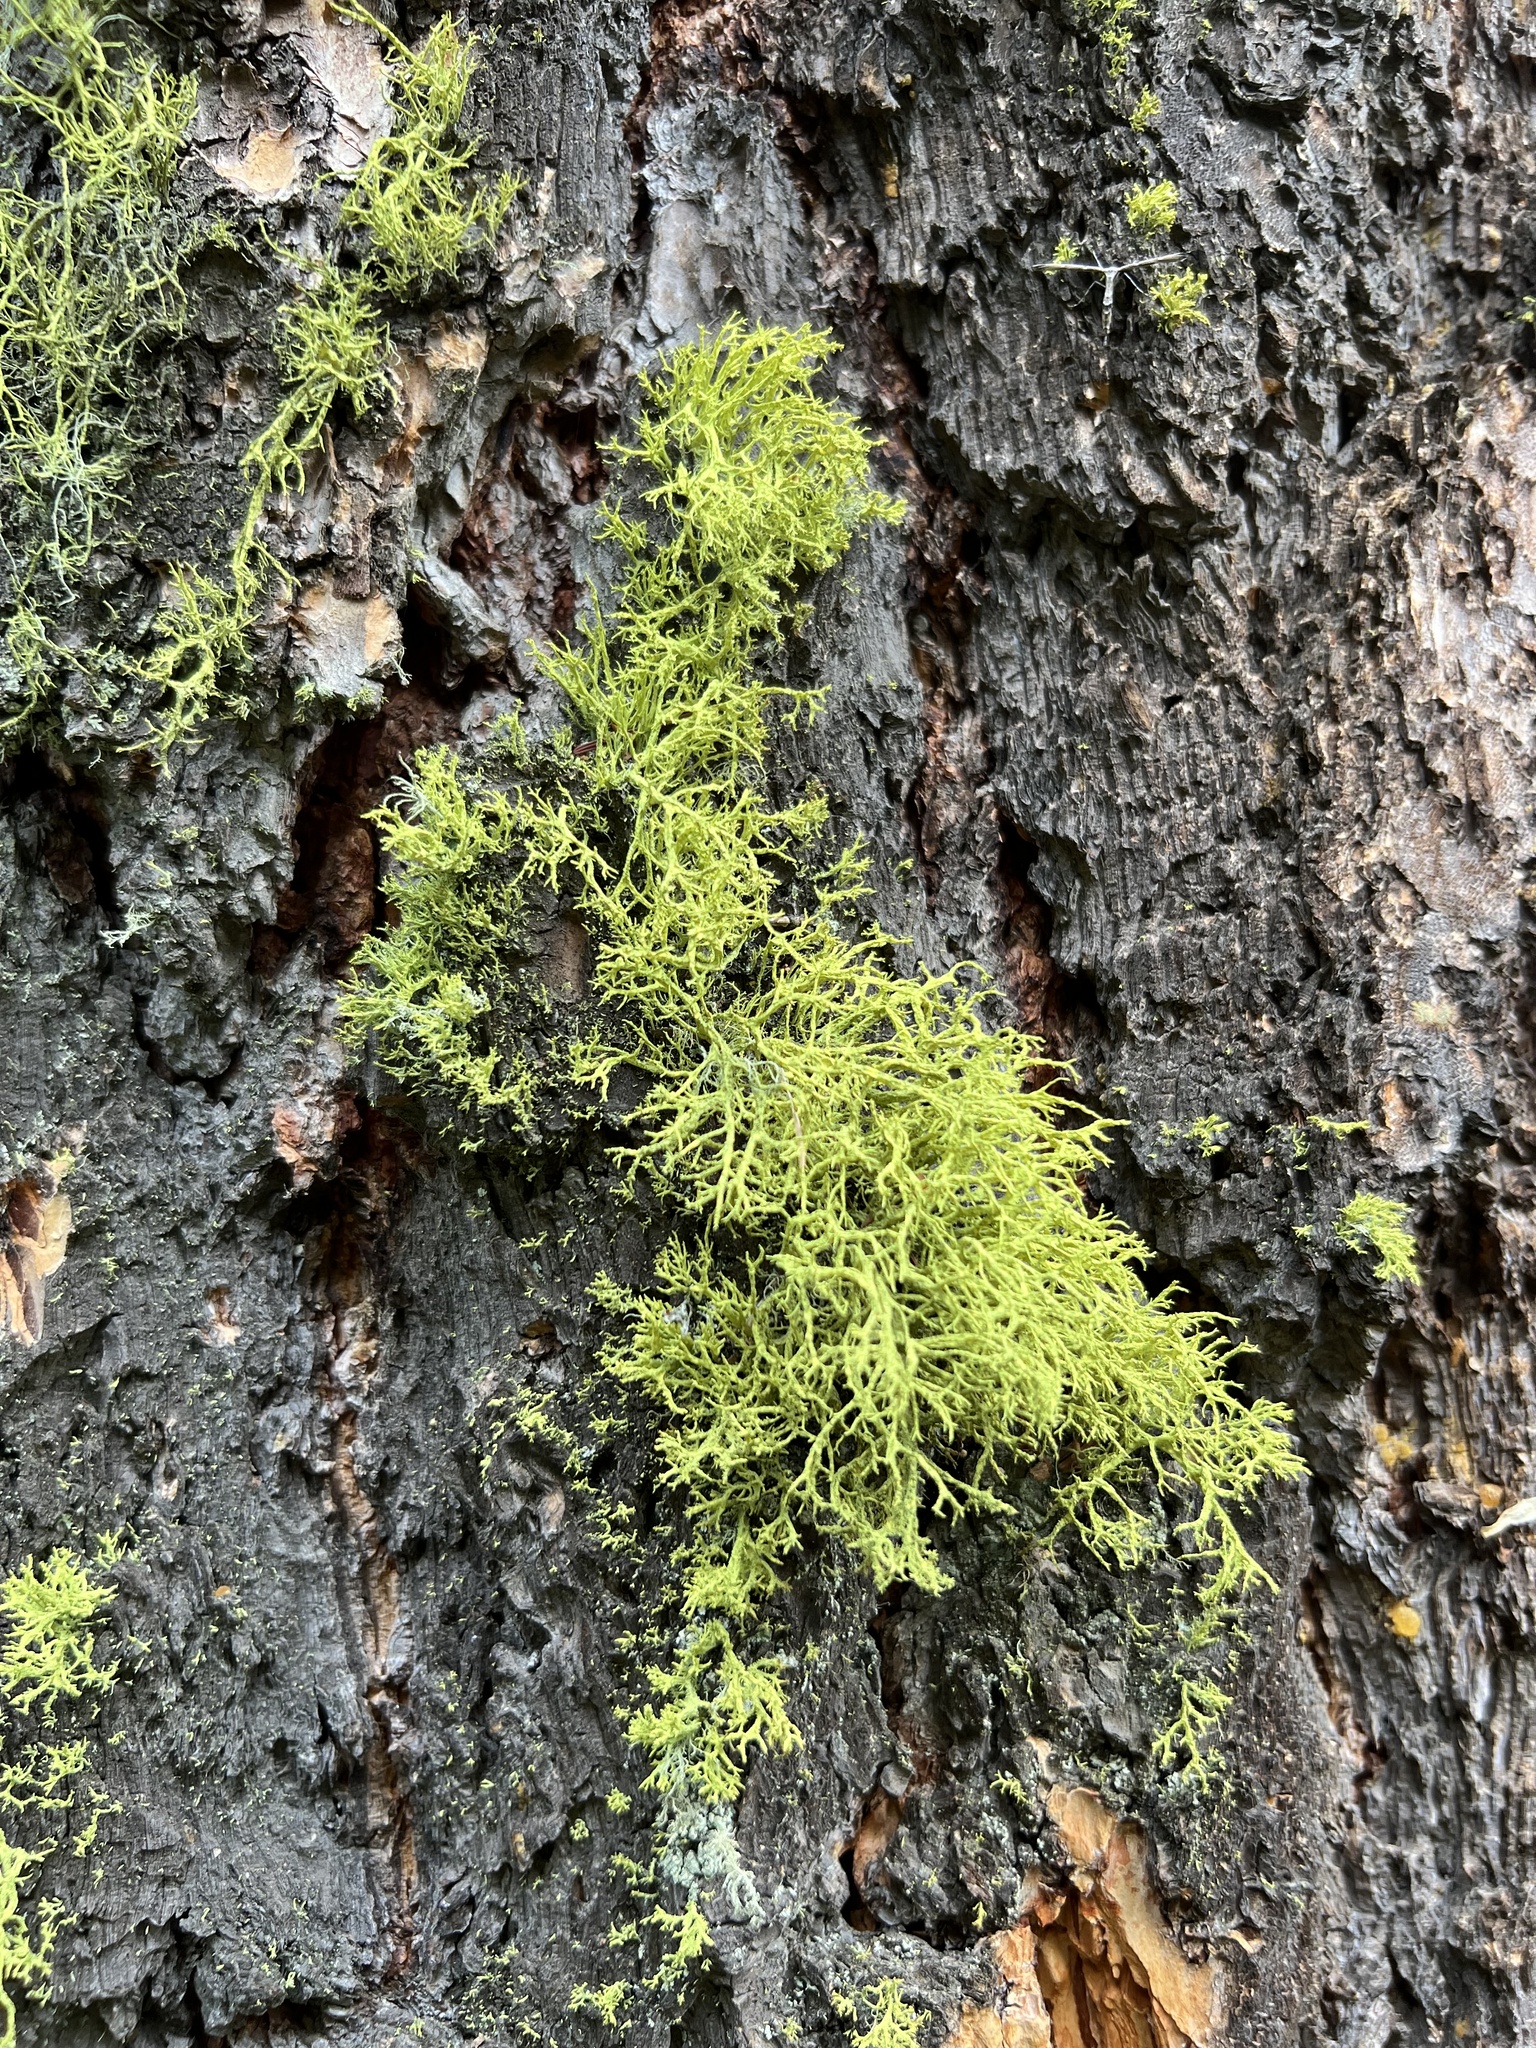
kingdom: Fungi
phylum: Ascomycota
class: Lecanoromycetes
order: Lecanorales
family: Parmeliaceae
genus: Letharia
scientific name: Letharia vulpina
